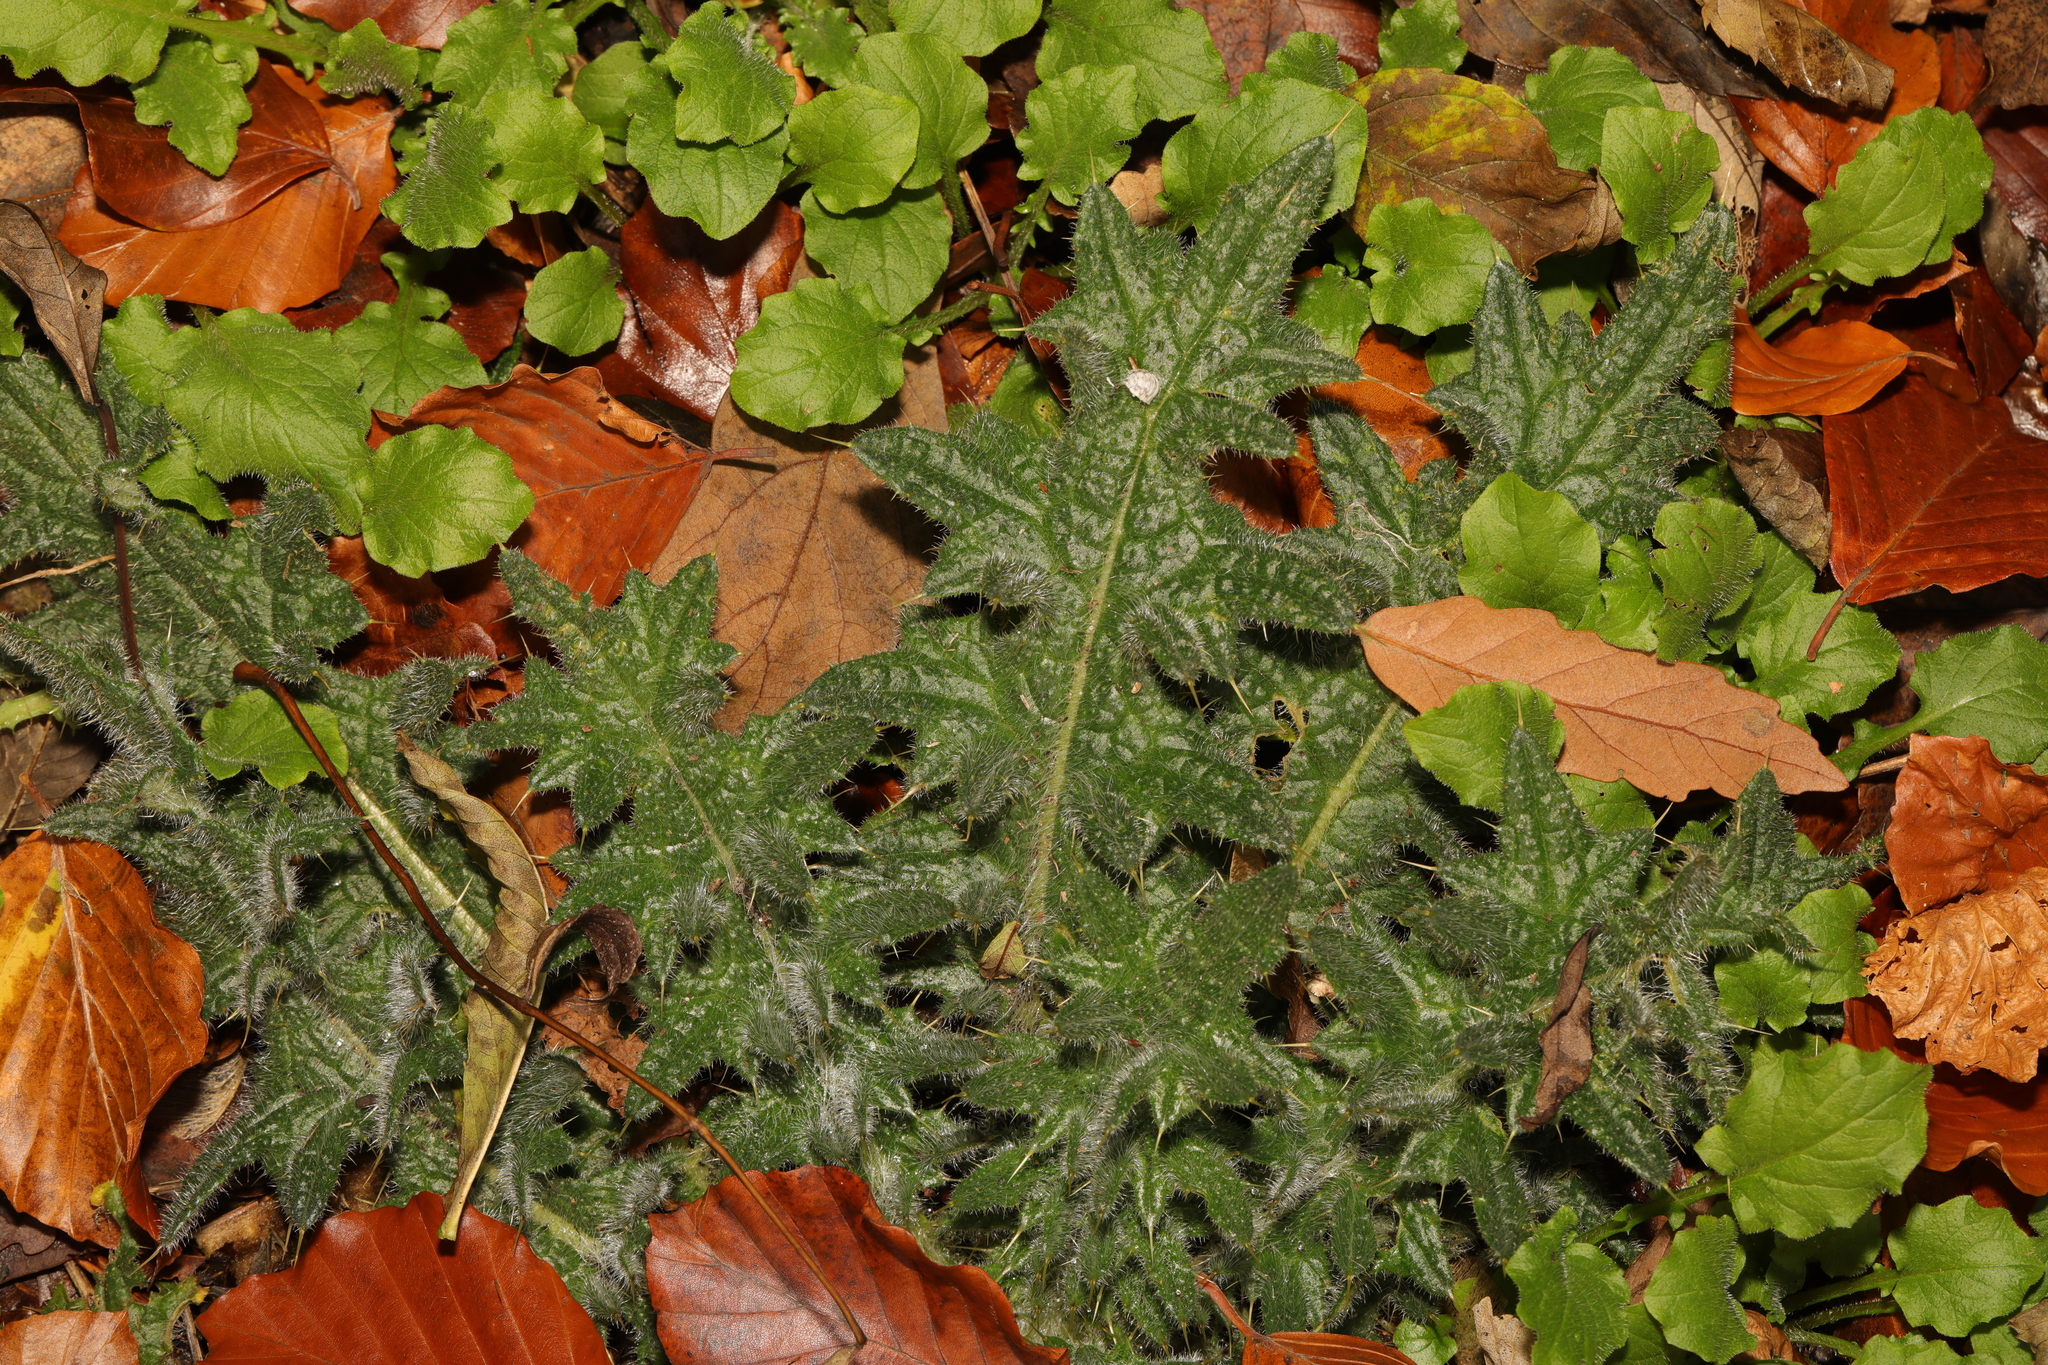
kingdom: Plantae
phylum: Tracheophyta
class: Magnoliopsida
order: Asterales
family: Asteraceae
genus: Cirsium
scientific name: Cirsium vulgare
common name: Bull thistle
